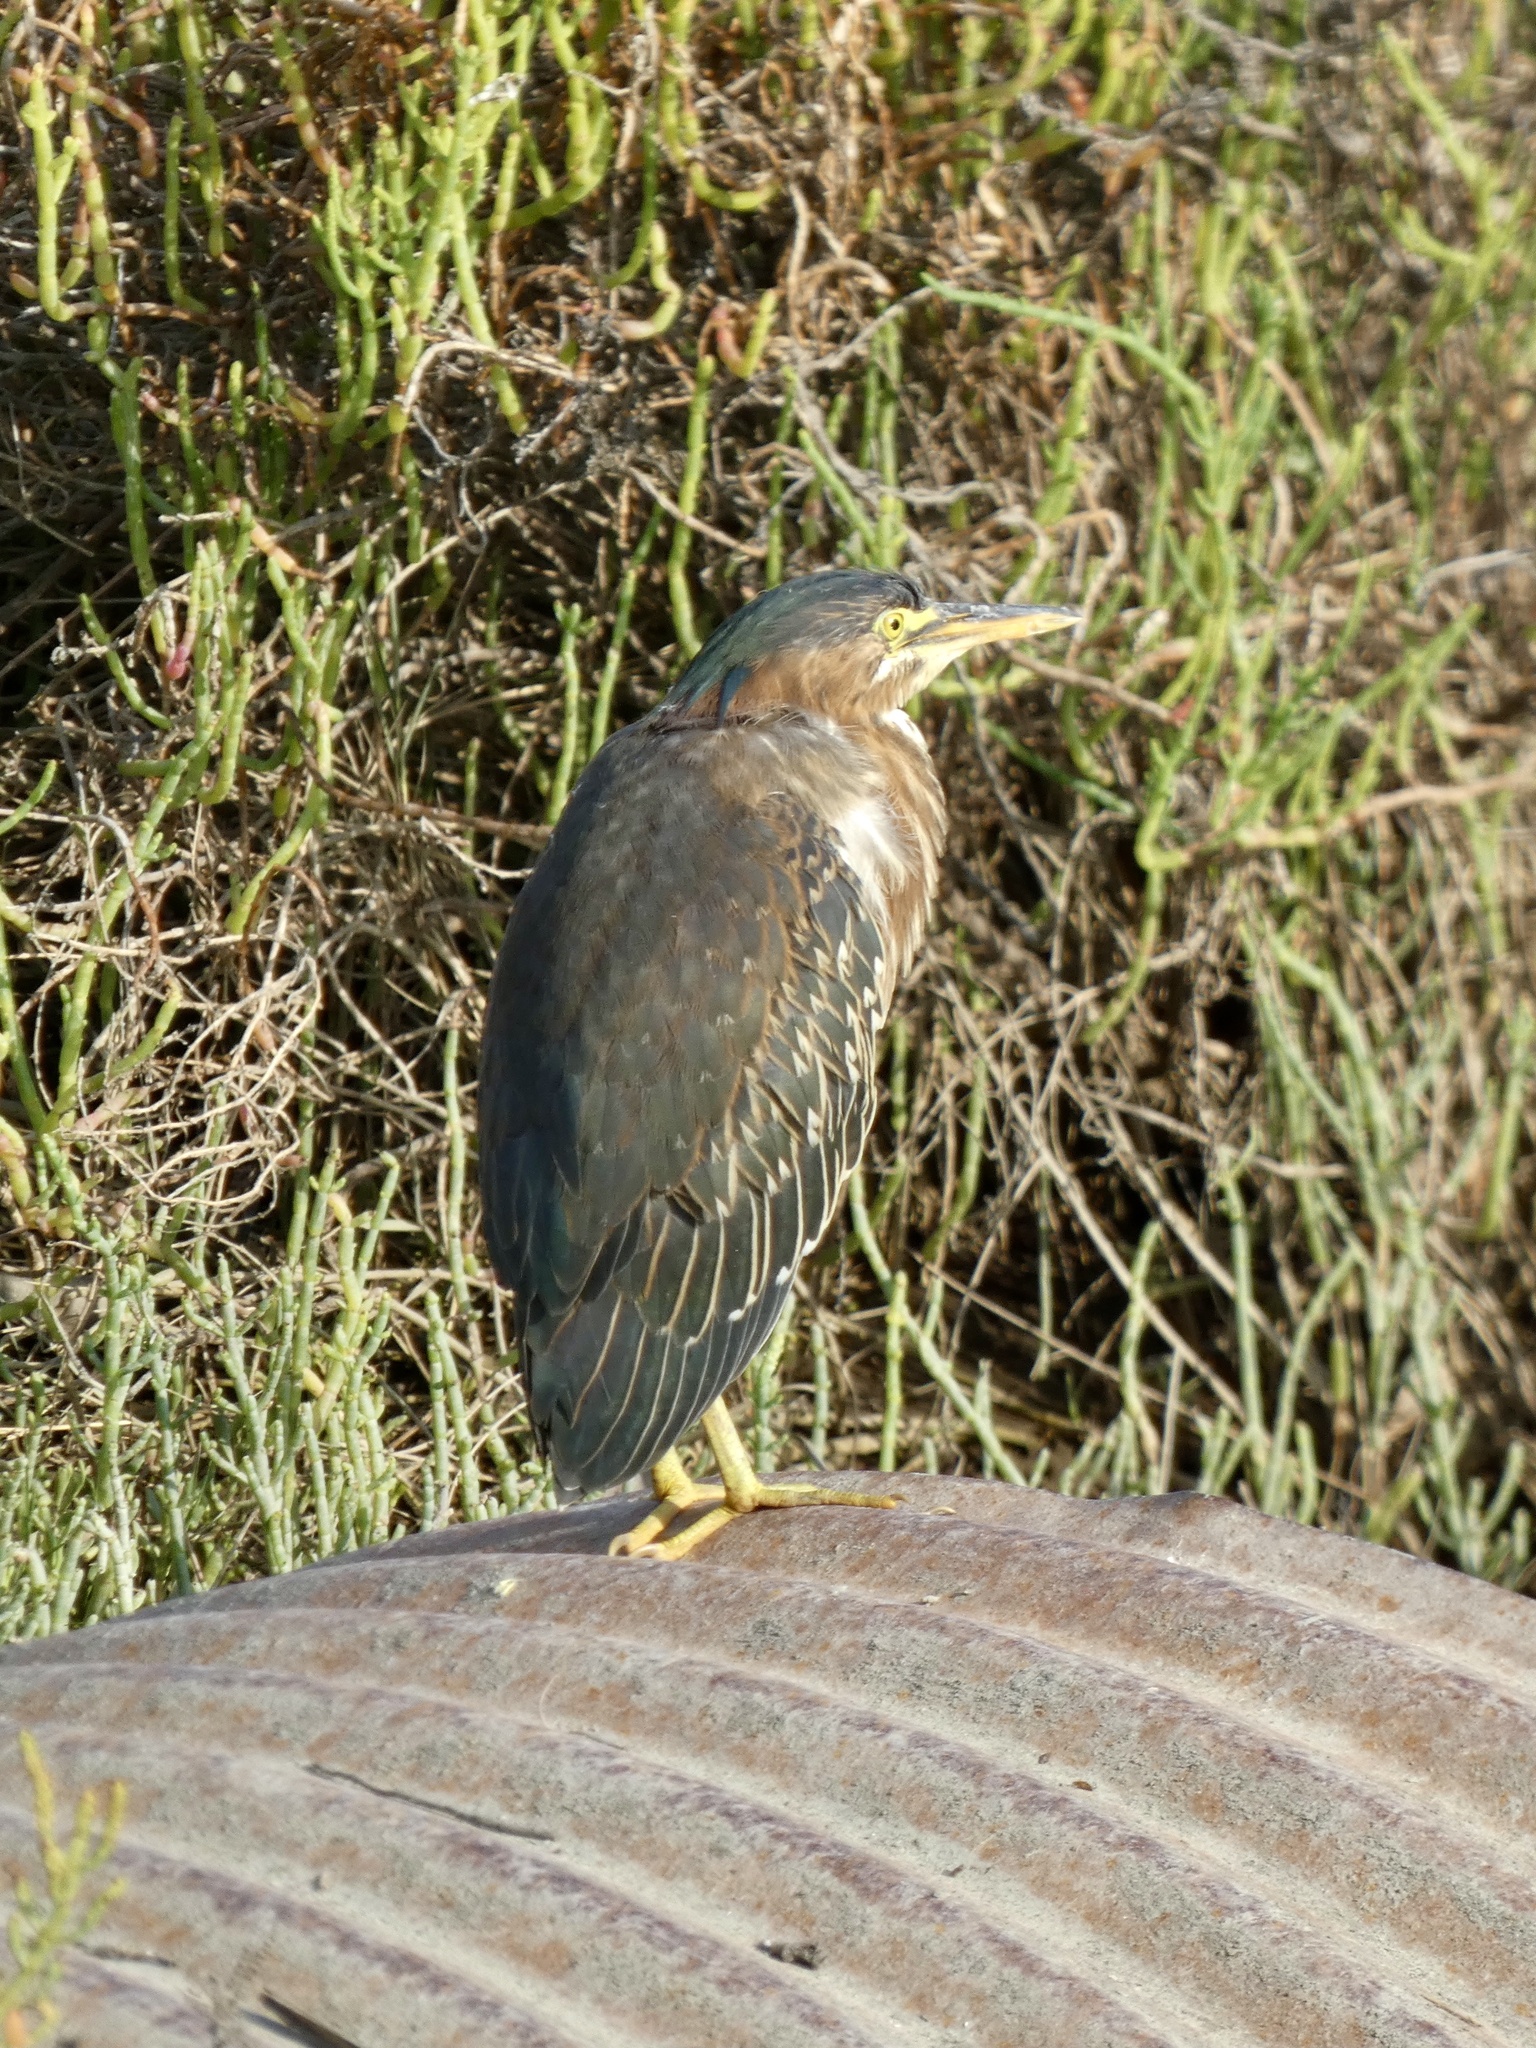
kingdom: Animalia
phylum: Chordata
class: Aves
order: Pelecaniformes
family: Ardeidae
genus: Butorides
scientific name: Butorides virescens
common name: Green heron
